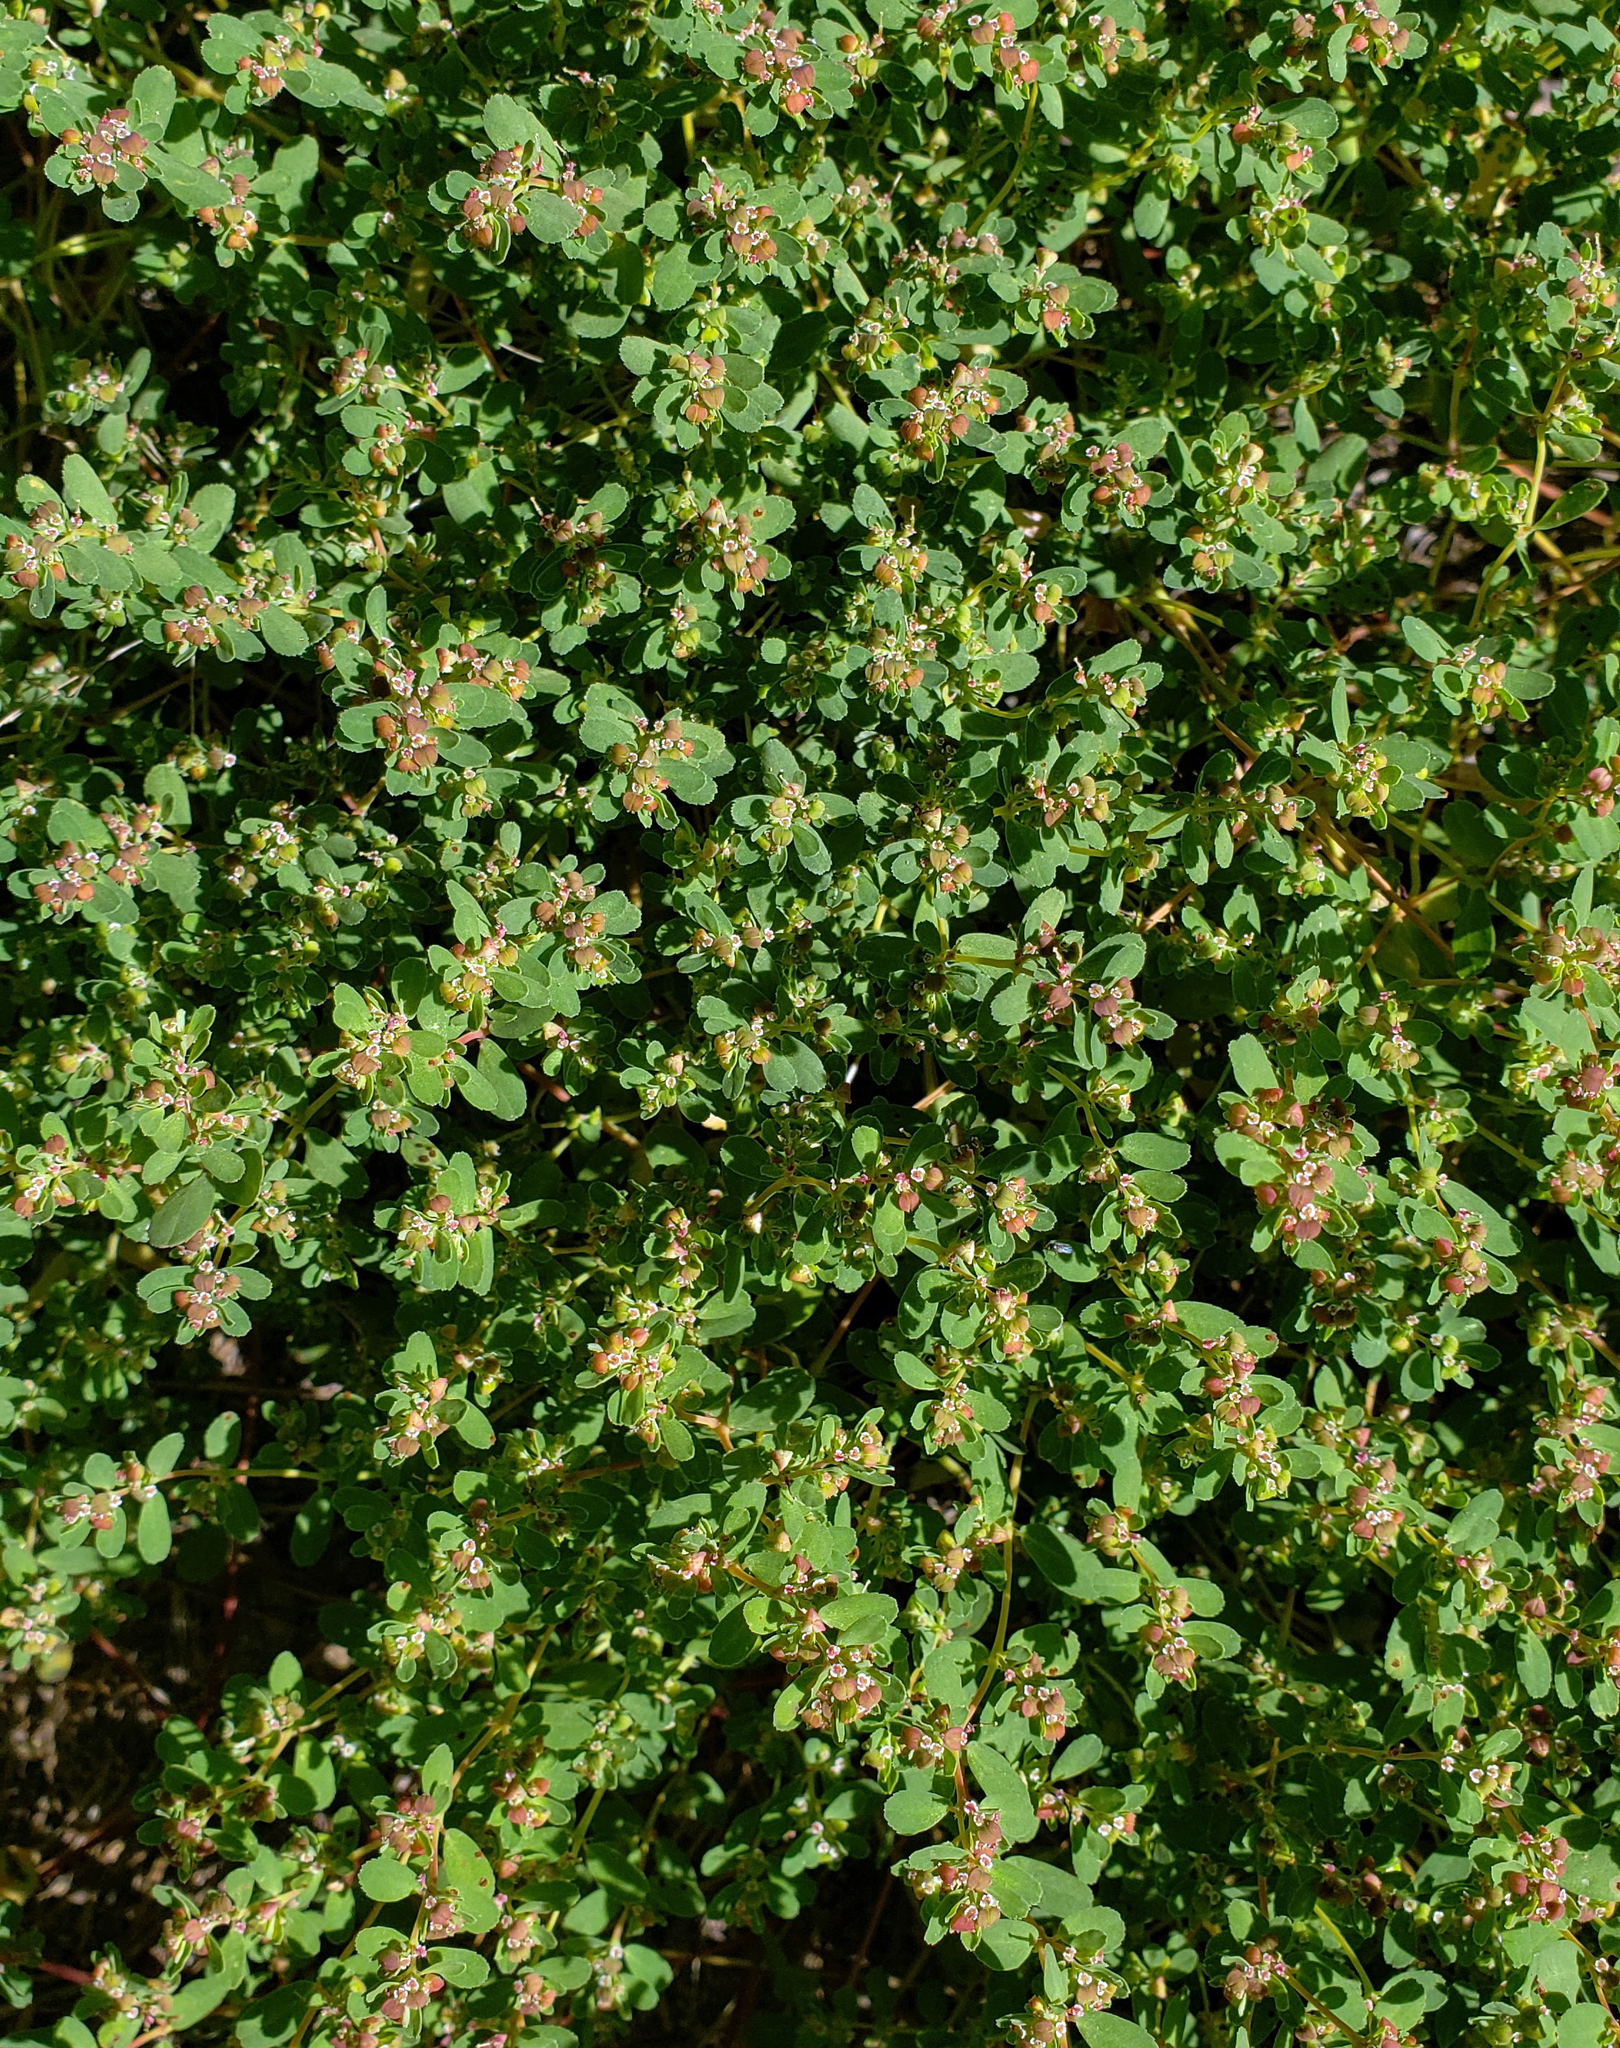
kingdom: Plantae
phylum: Tracheophyta
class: Magnoliopsida
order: Malpighiales
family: Euphorbiaceae
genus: Euphorbia
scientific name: Euphorbia serpillifolia
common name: Thyme-leaf spurge
